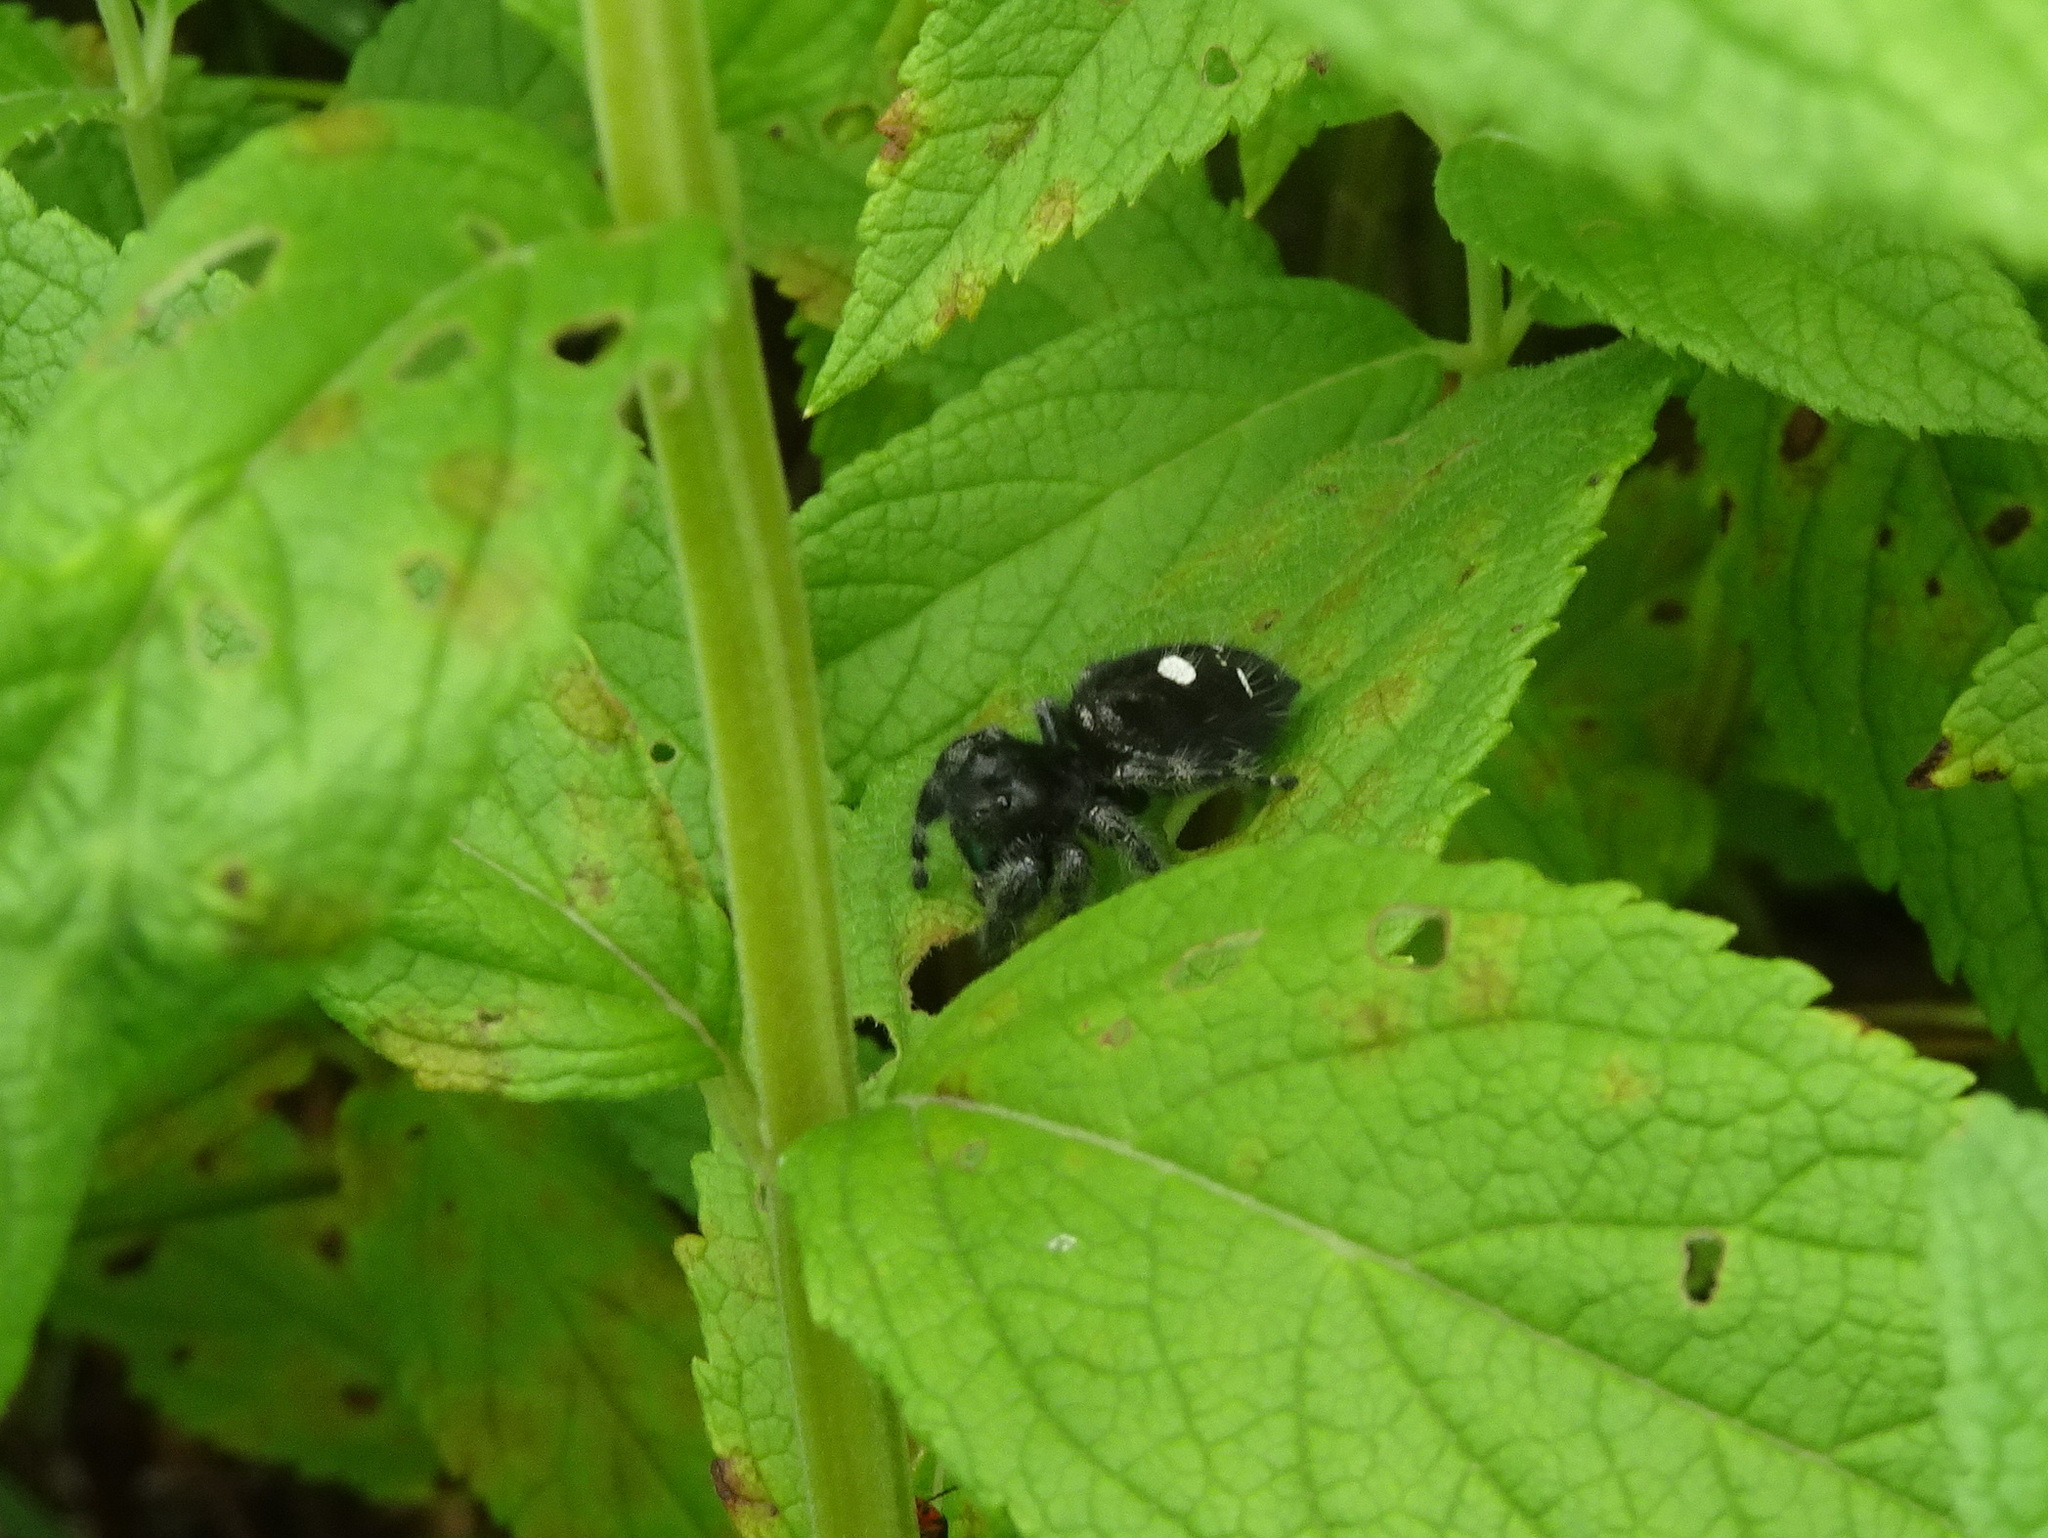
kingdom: Animalia
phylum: Arthropoda
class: Arachnida
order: Araneae
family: Salticidae
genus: Phidippus
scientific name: Phidippus audax
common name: Bold jumper
